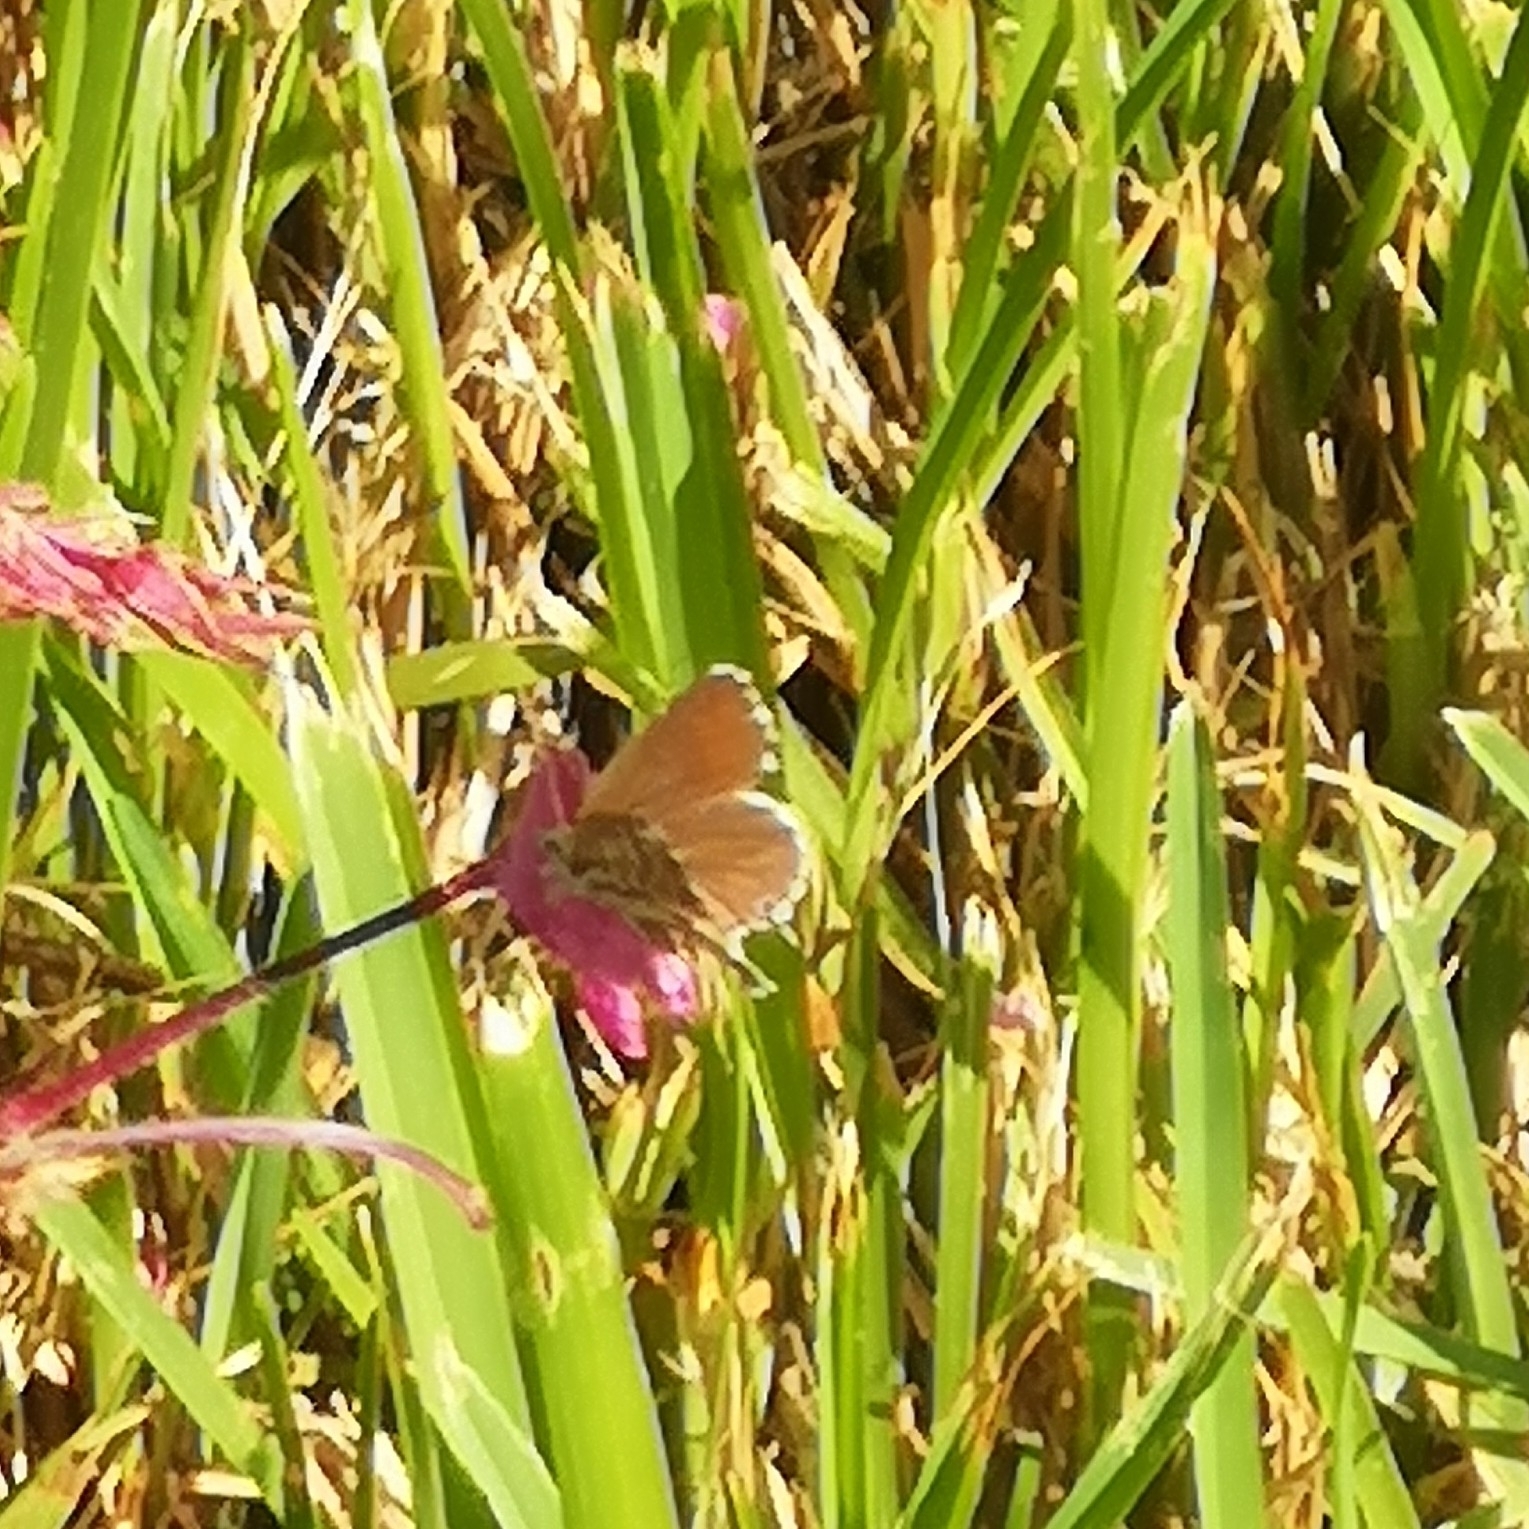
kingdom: Animalia
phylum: Arthropoda
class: Insecta
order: Lepidoptera
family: Lycaenidae
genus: Cacyreus
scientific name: Cacyreus marshalli
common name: Geranium bronze
